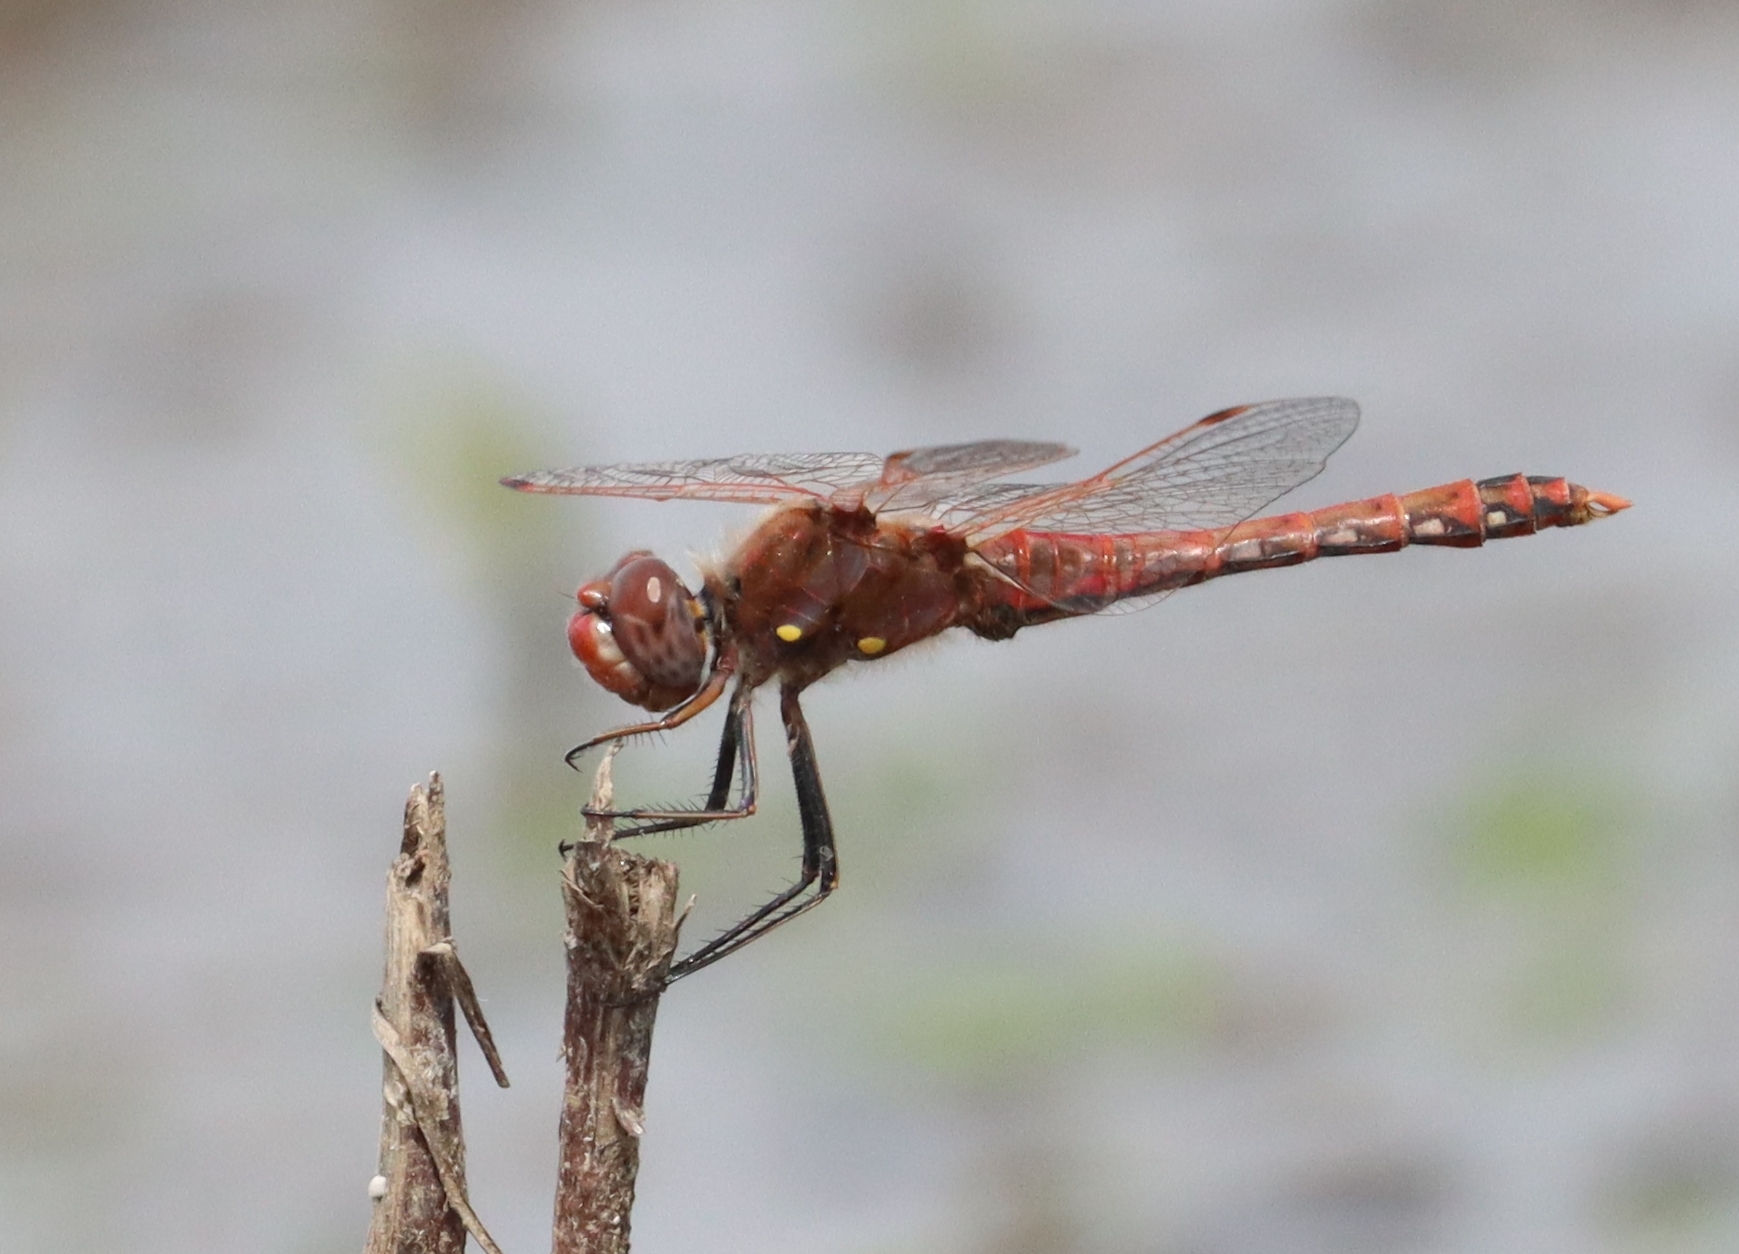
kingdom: Animalia
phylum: Arthropoda
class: Insecta
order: Odonata
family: Libellulidae
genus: Sympetrum
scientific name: Sympetrum corruptum
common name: Variegated meadowhawk
